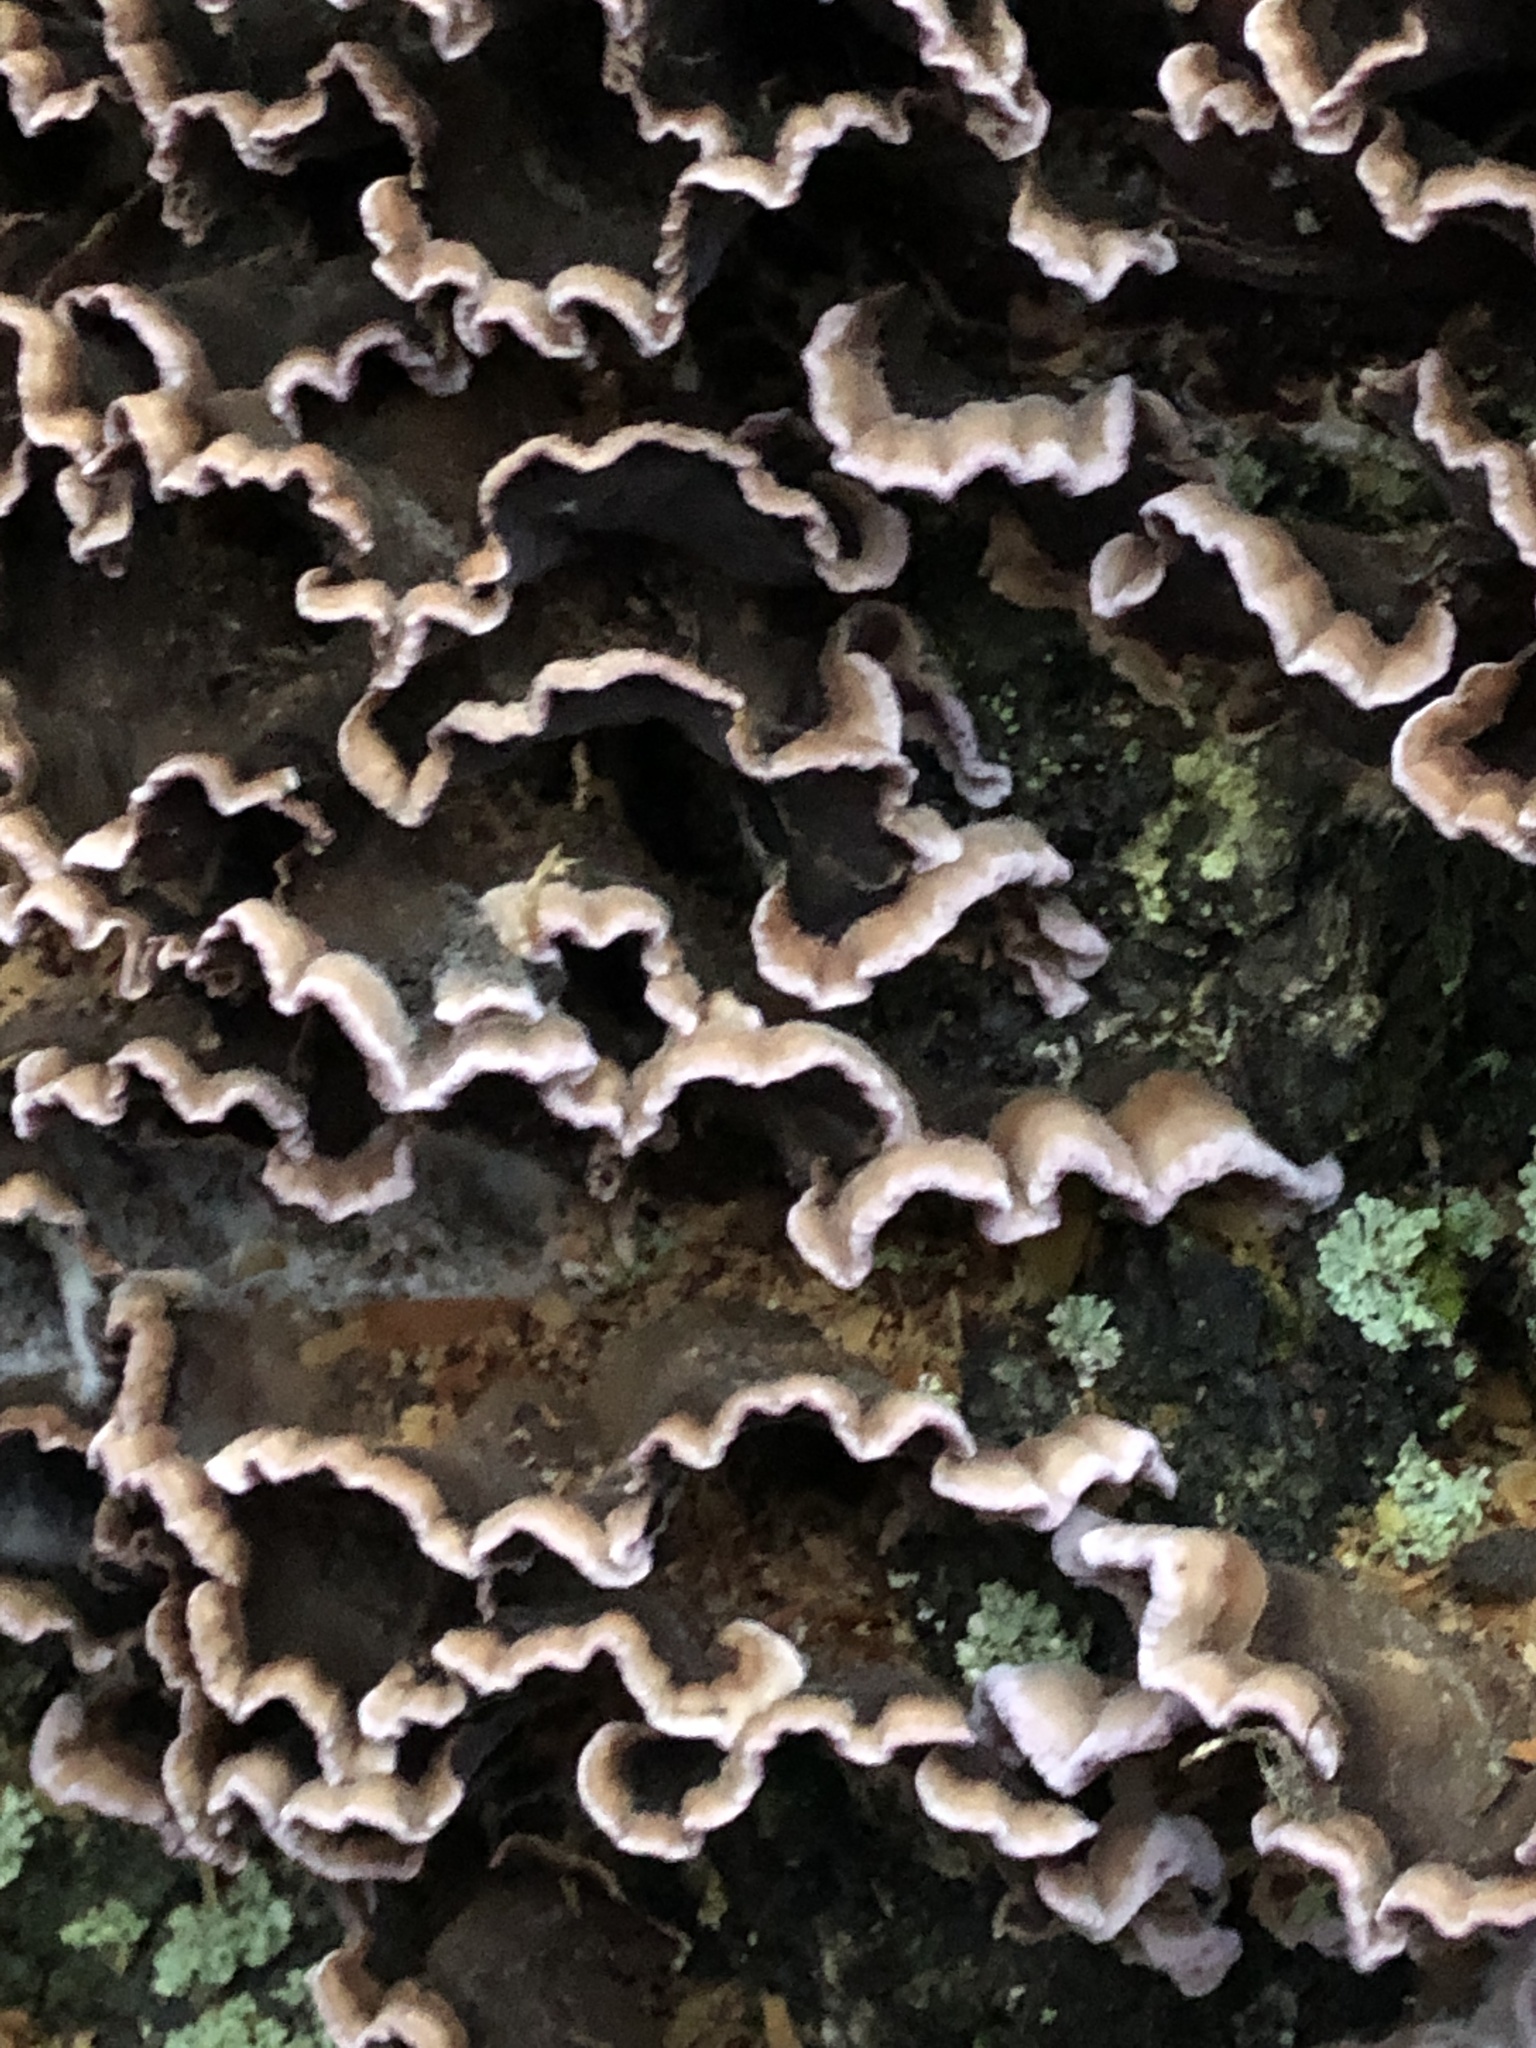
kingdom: Fungi
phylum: Basidiomycota
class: Agaricomycetes
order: Agaricales
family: Cyphellaceae
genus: Chondrostereum
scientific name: Chondrostereum purpureum
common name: Silver leaf disease
